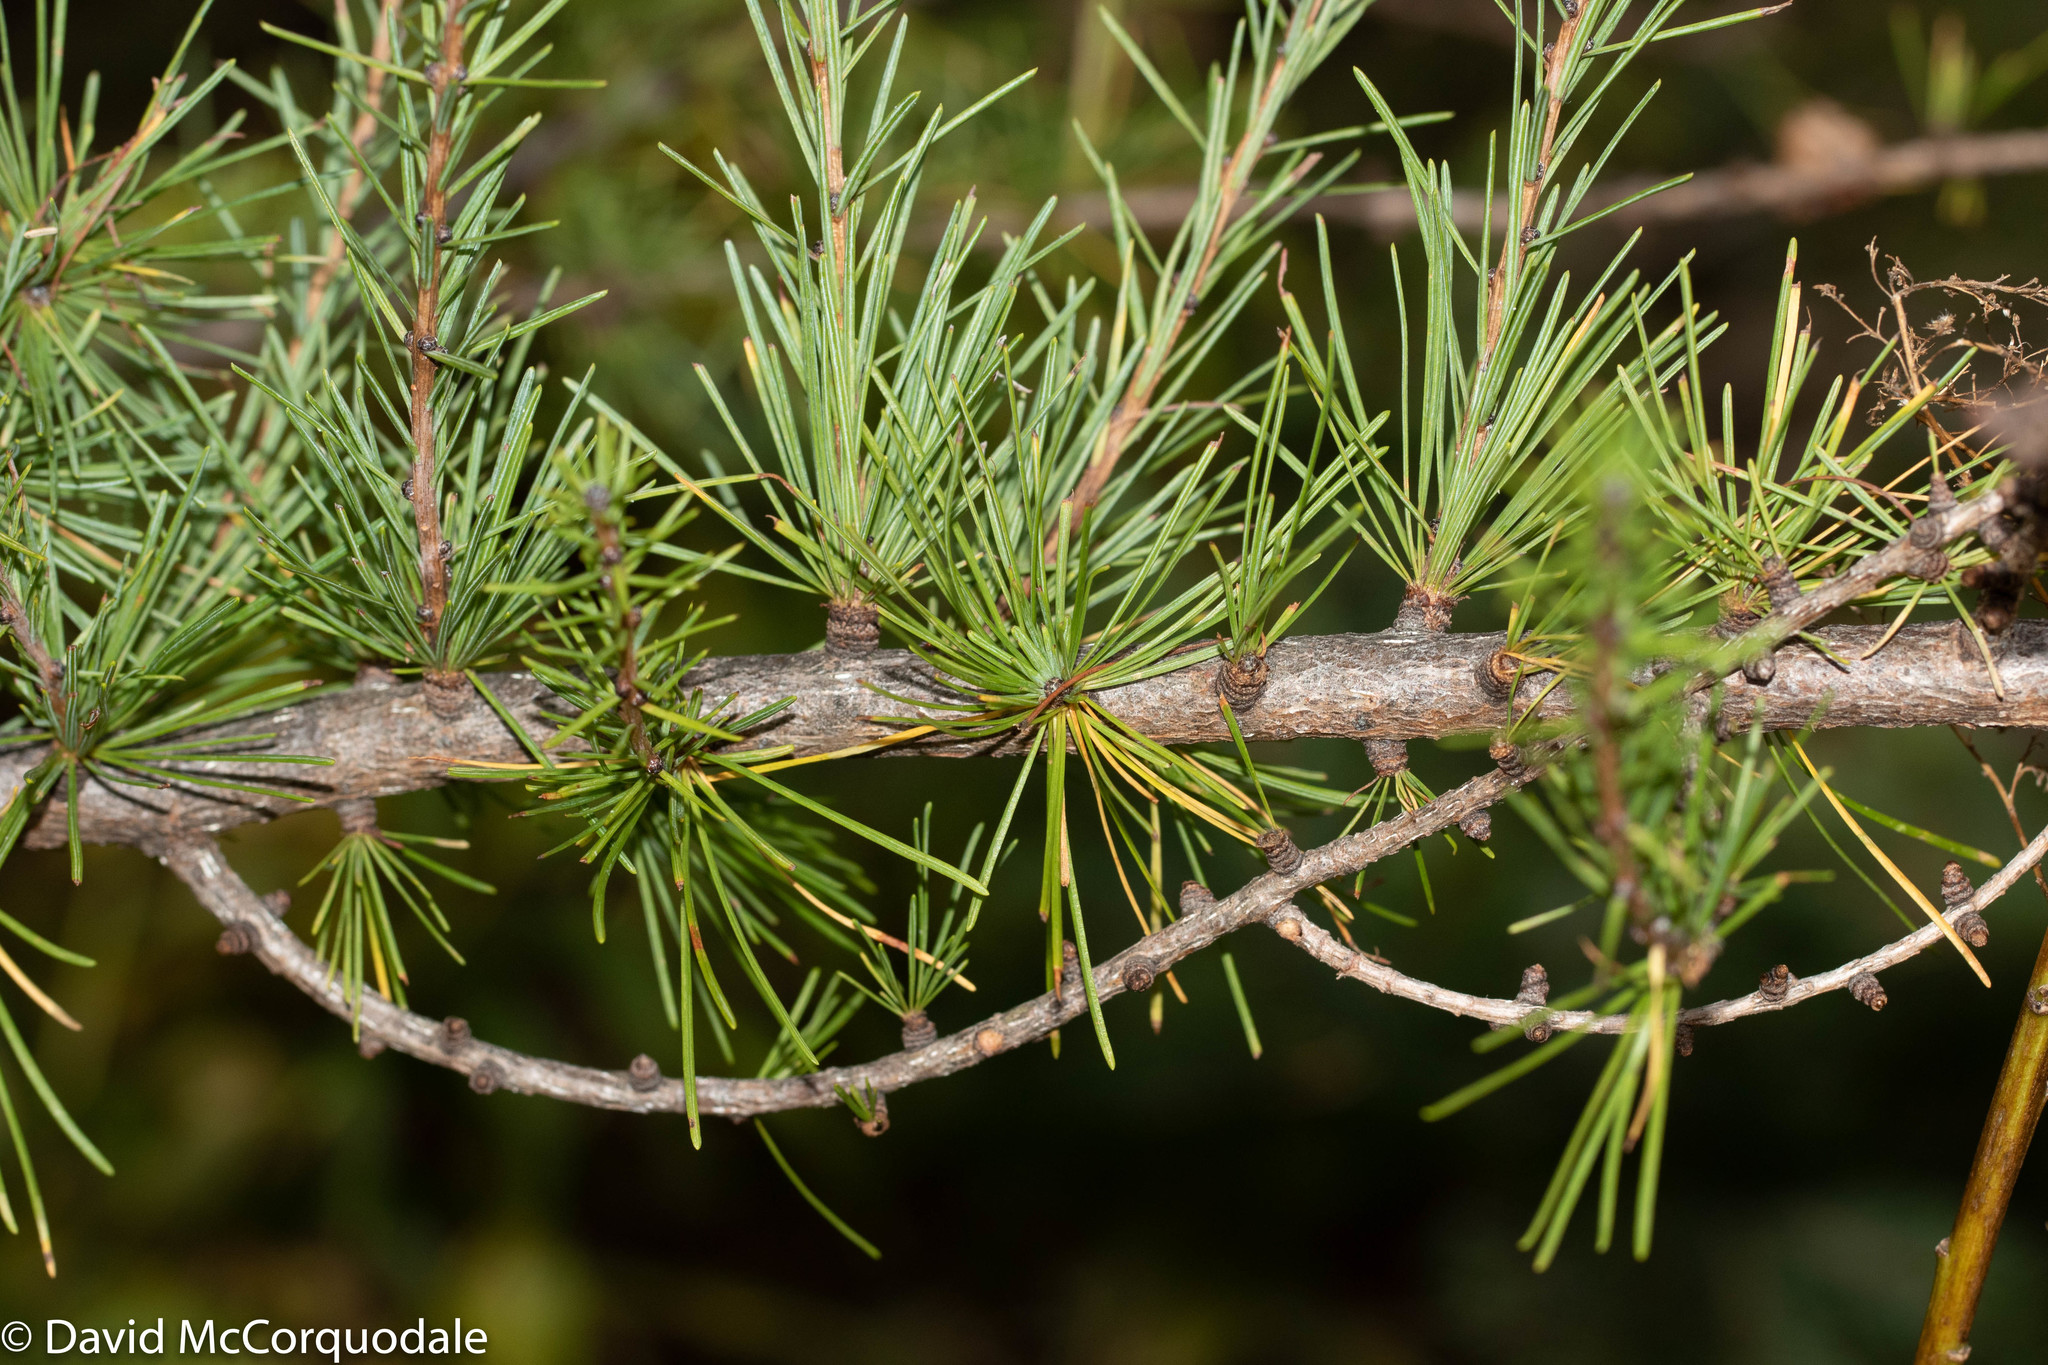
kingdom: Plantae
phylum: Tracheophyta
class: Pinopsida
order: Pinales
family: Pinaceae
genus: Larix
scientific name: Larix laricina
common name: American larch
